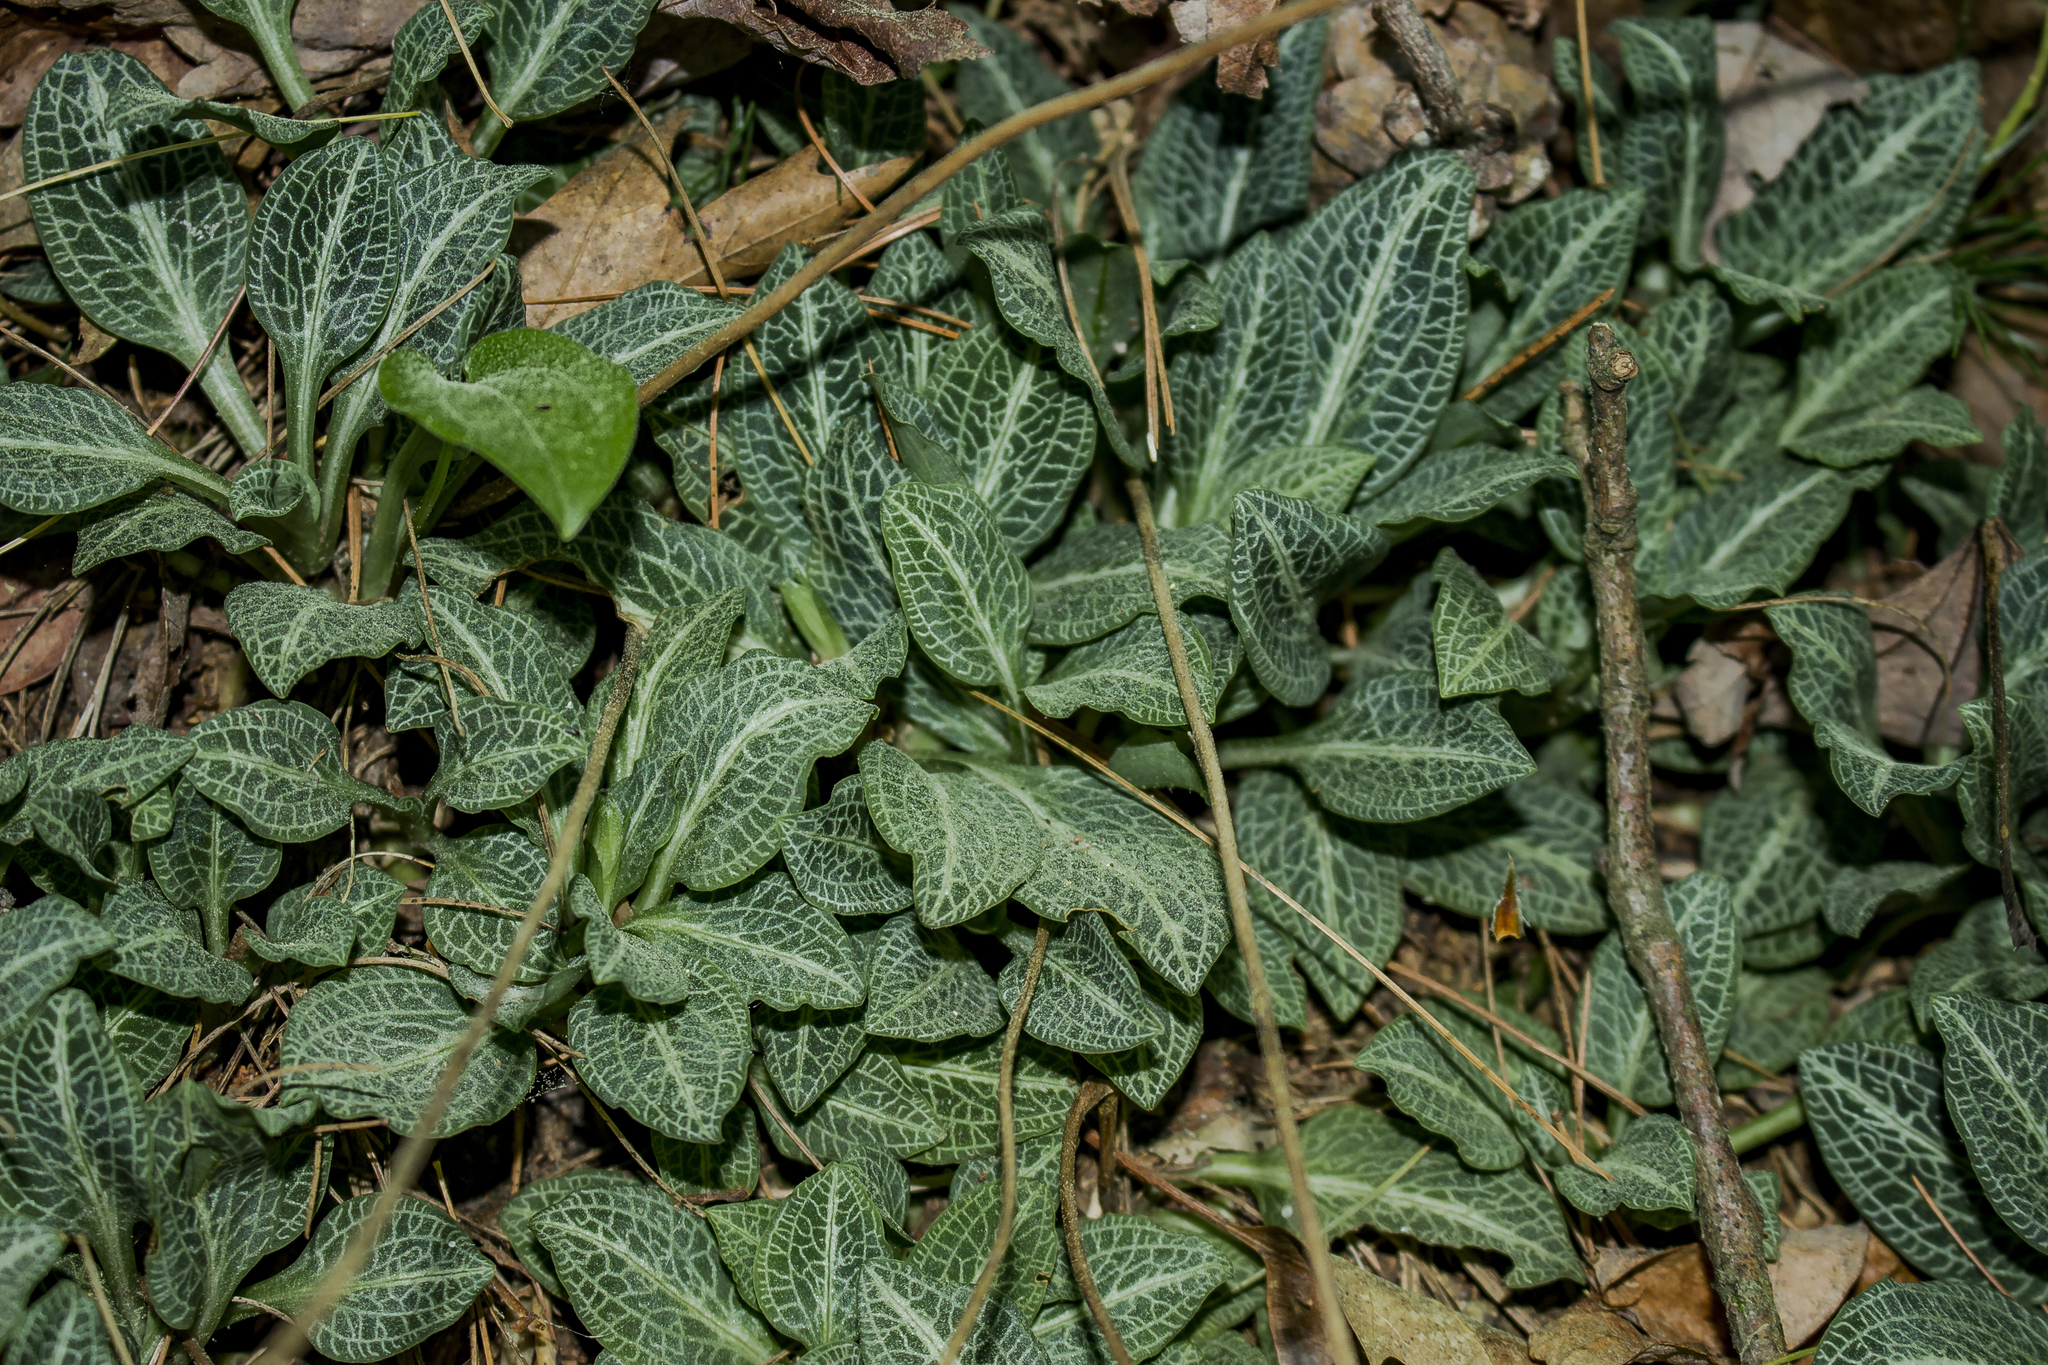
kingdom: Plantae
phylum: Tracheophyta
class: Liliopsida
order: Asparagales
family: Orchidaceae
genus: Goodyera
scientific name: Goodyera pubescens
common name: Downy rattlesnake-plantain
